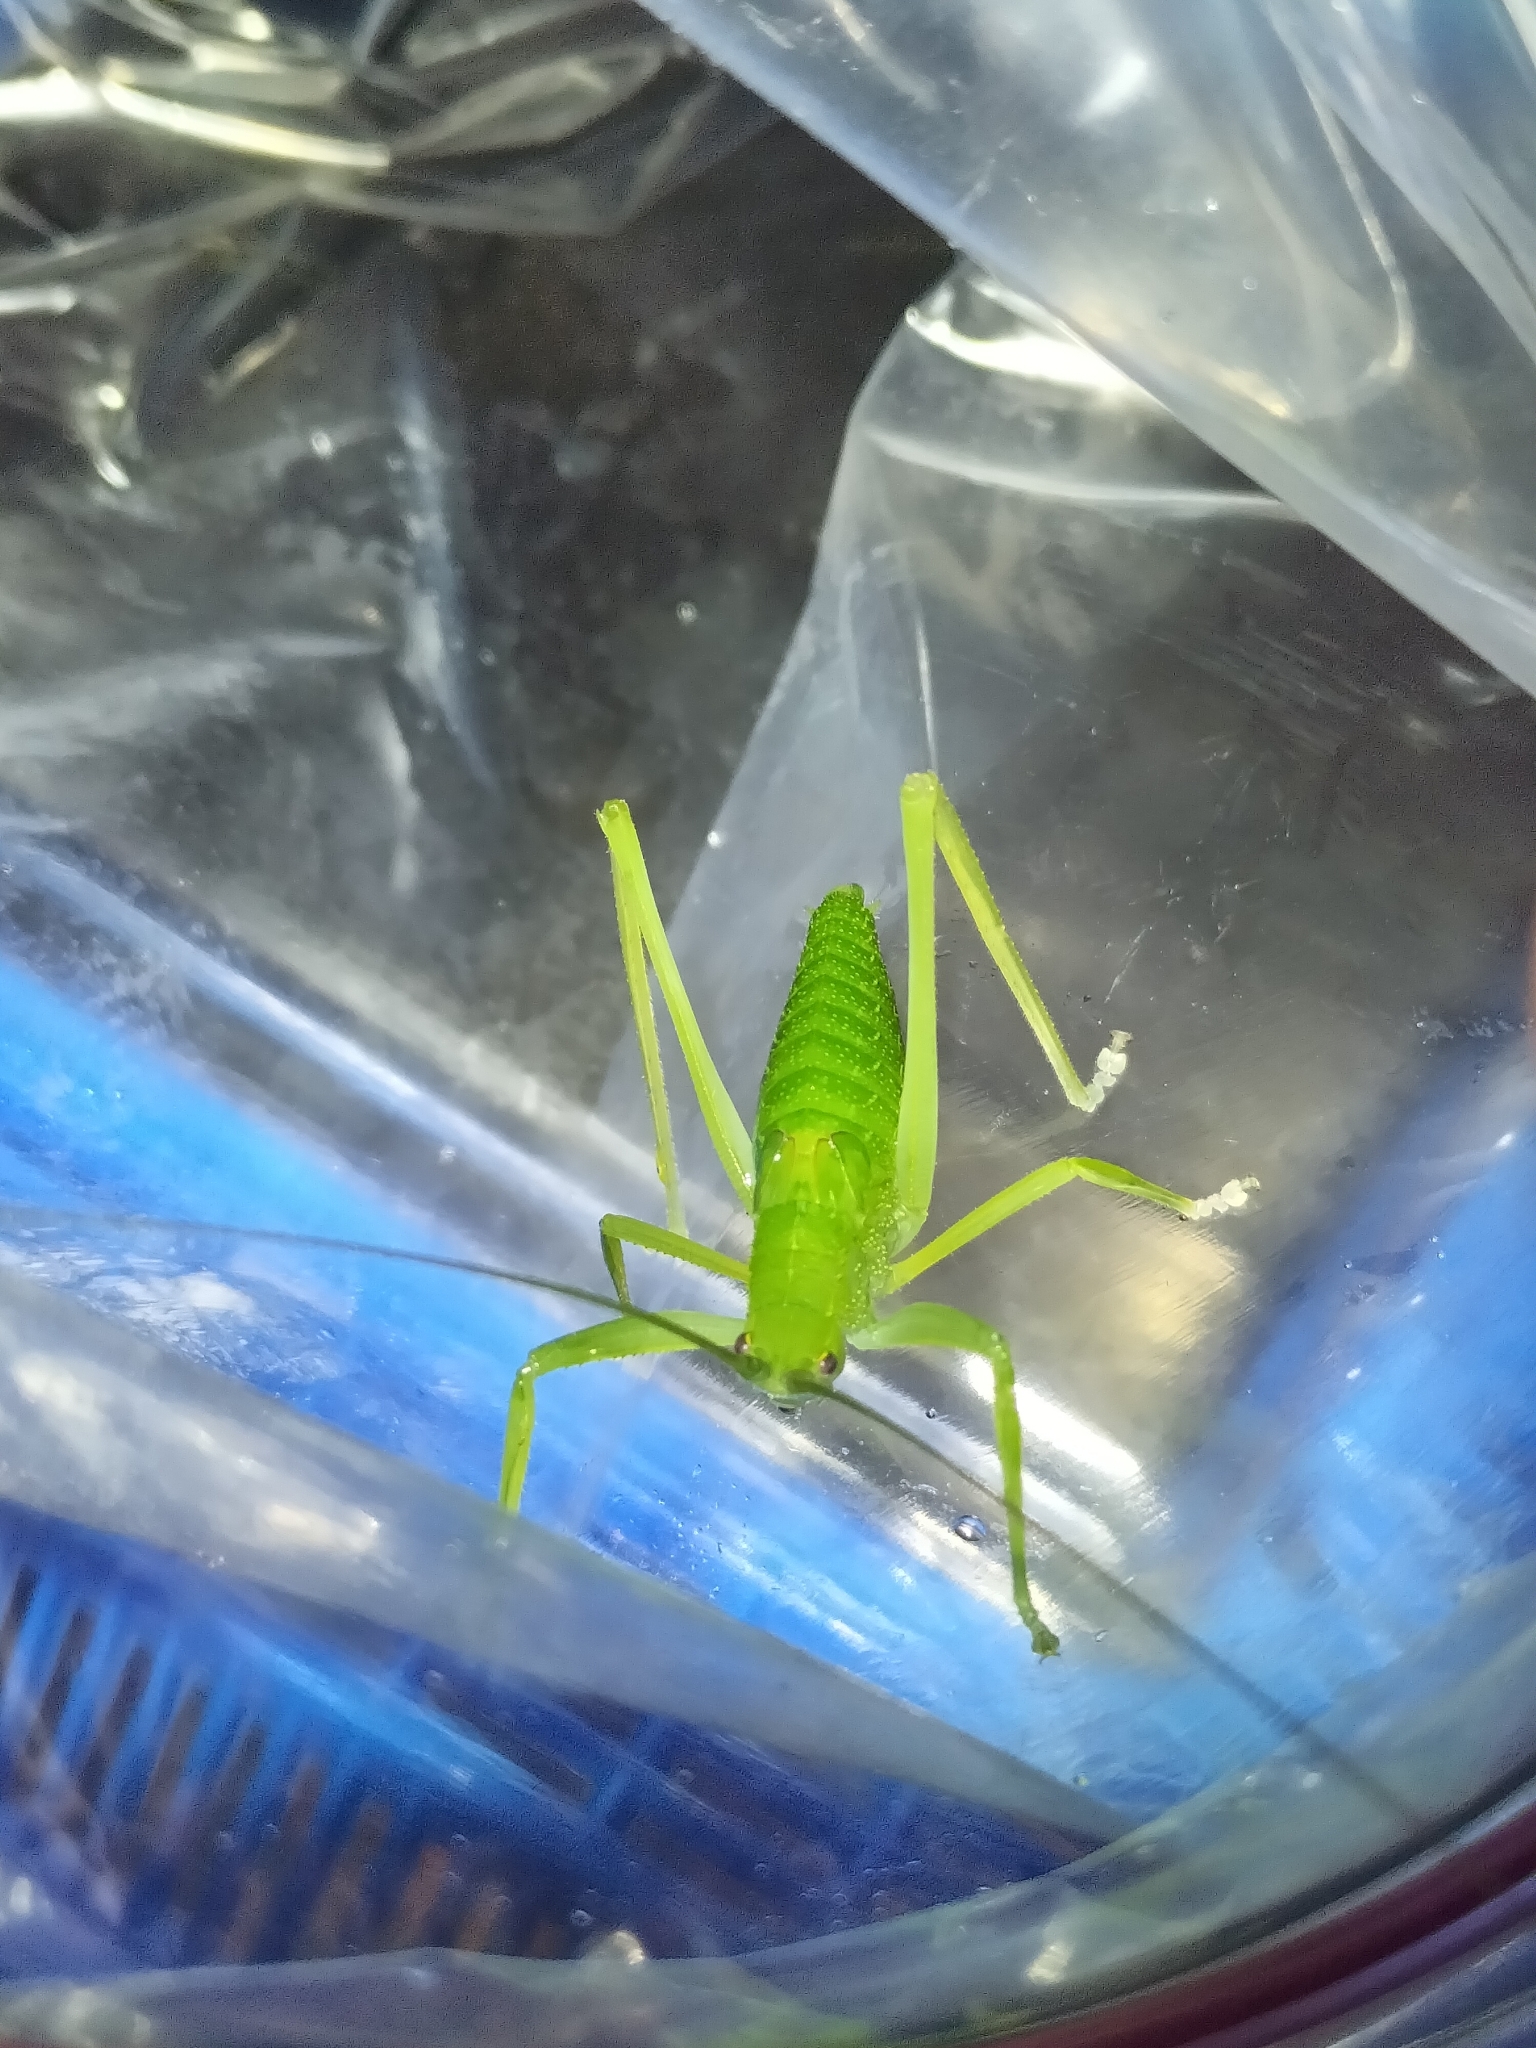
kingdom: Animalia
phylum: Arthropoda
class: Insecta
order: Orthoptera
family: Tettigoniidae
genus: Mastighaphoides
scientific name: Mastighaphoides tuberculatus
